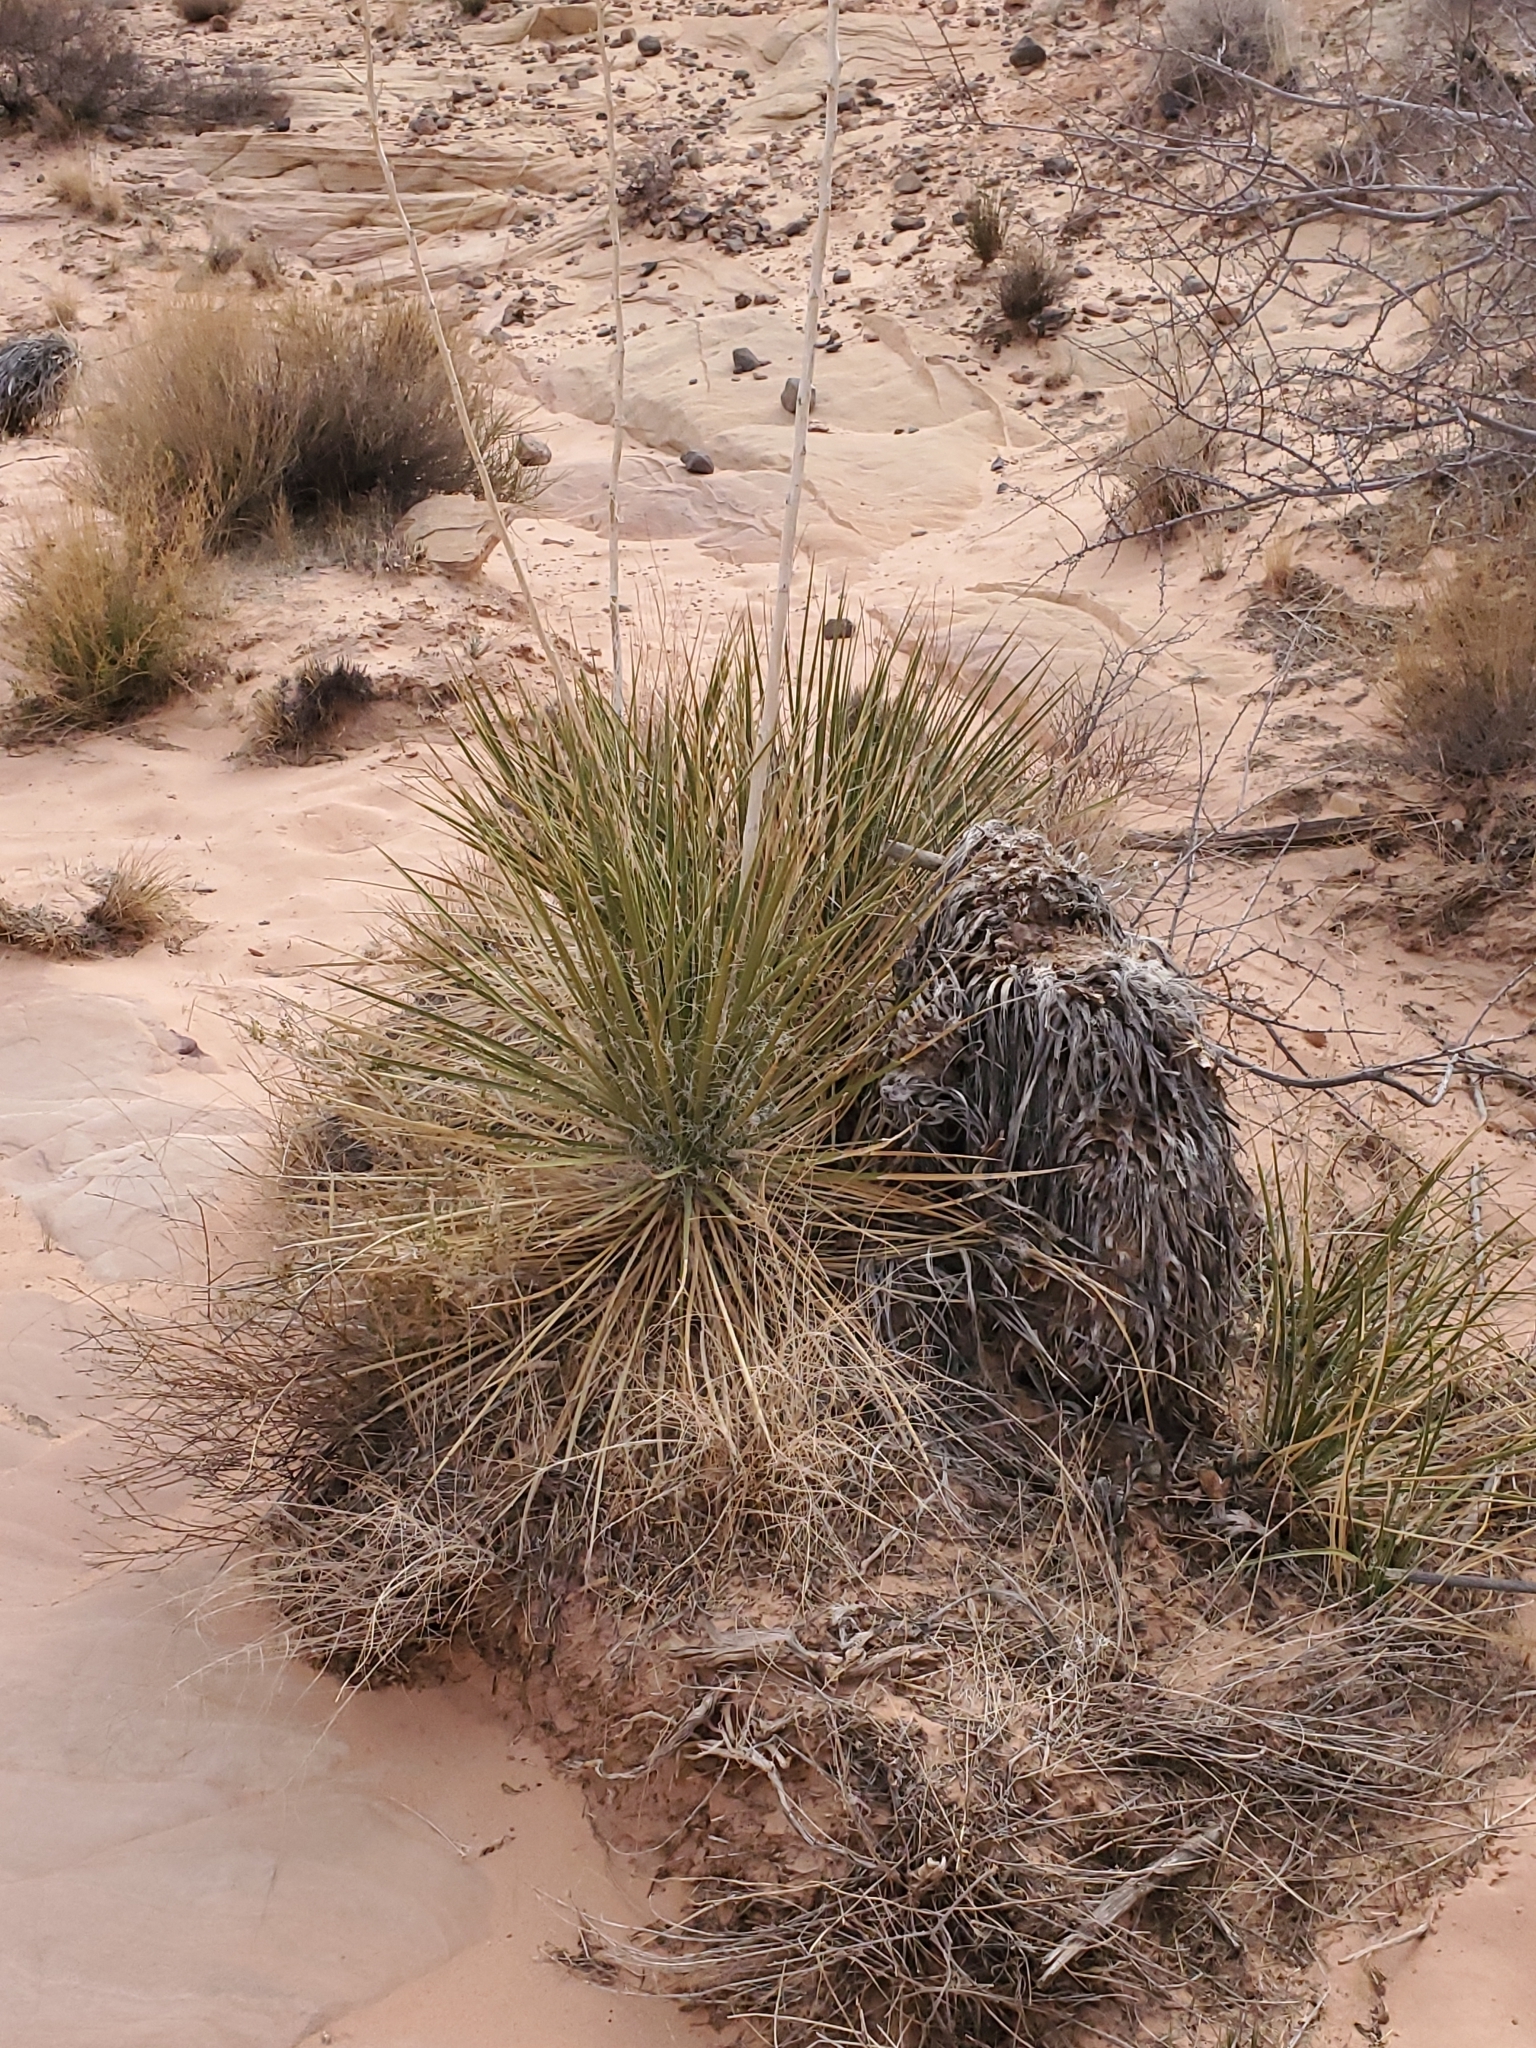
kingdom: Plantae
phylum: Tracheophyta
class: Liliopsida
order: Asparagales
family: Asparagaceae
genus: Yucca
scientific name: Yucca utahensis
